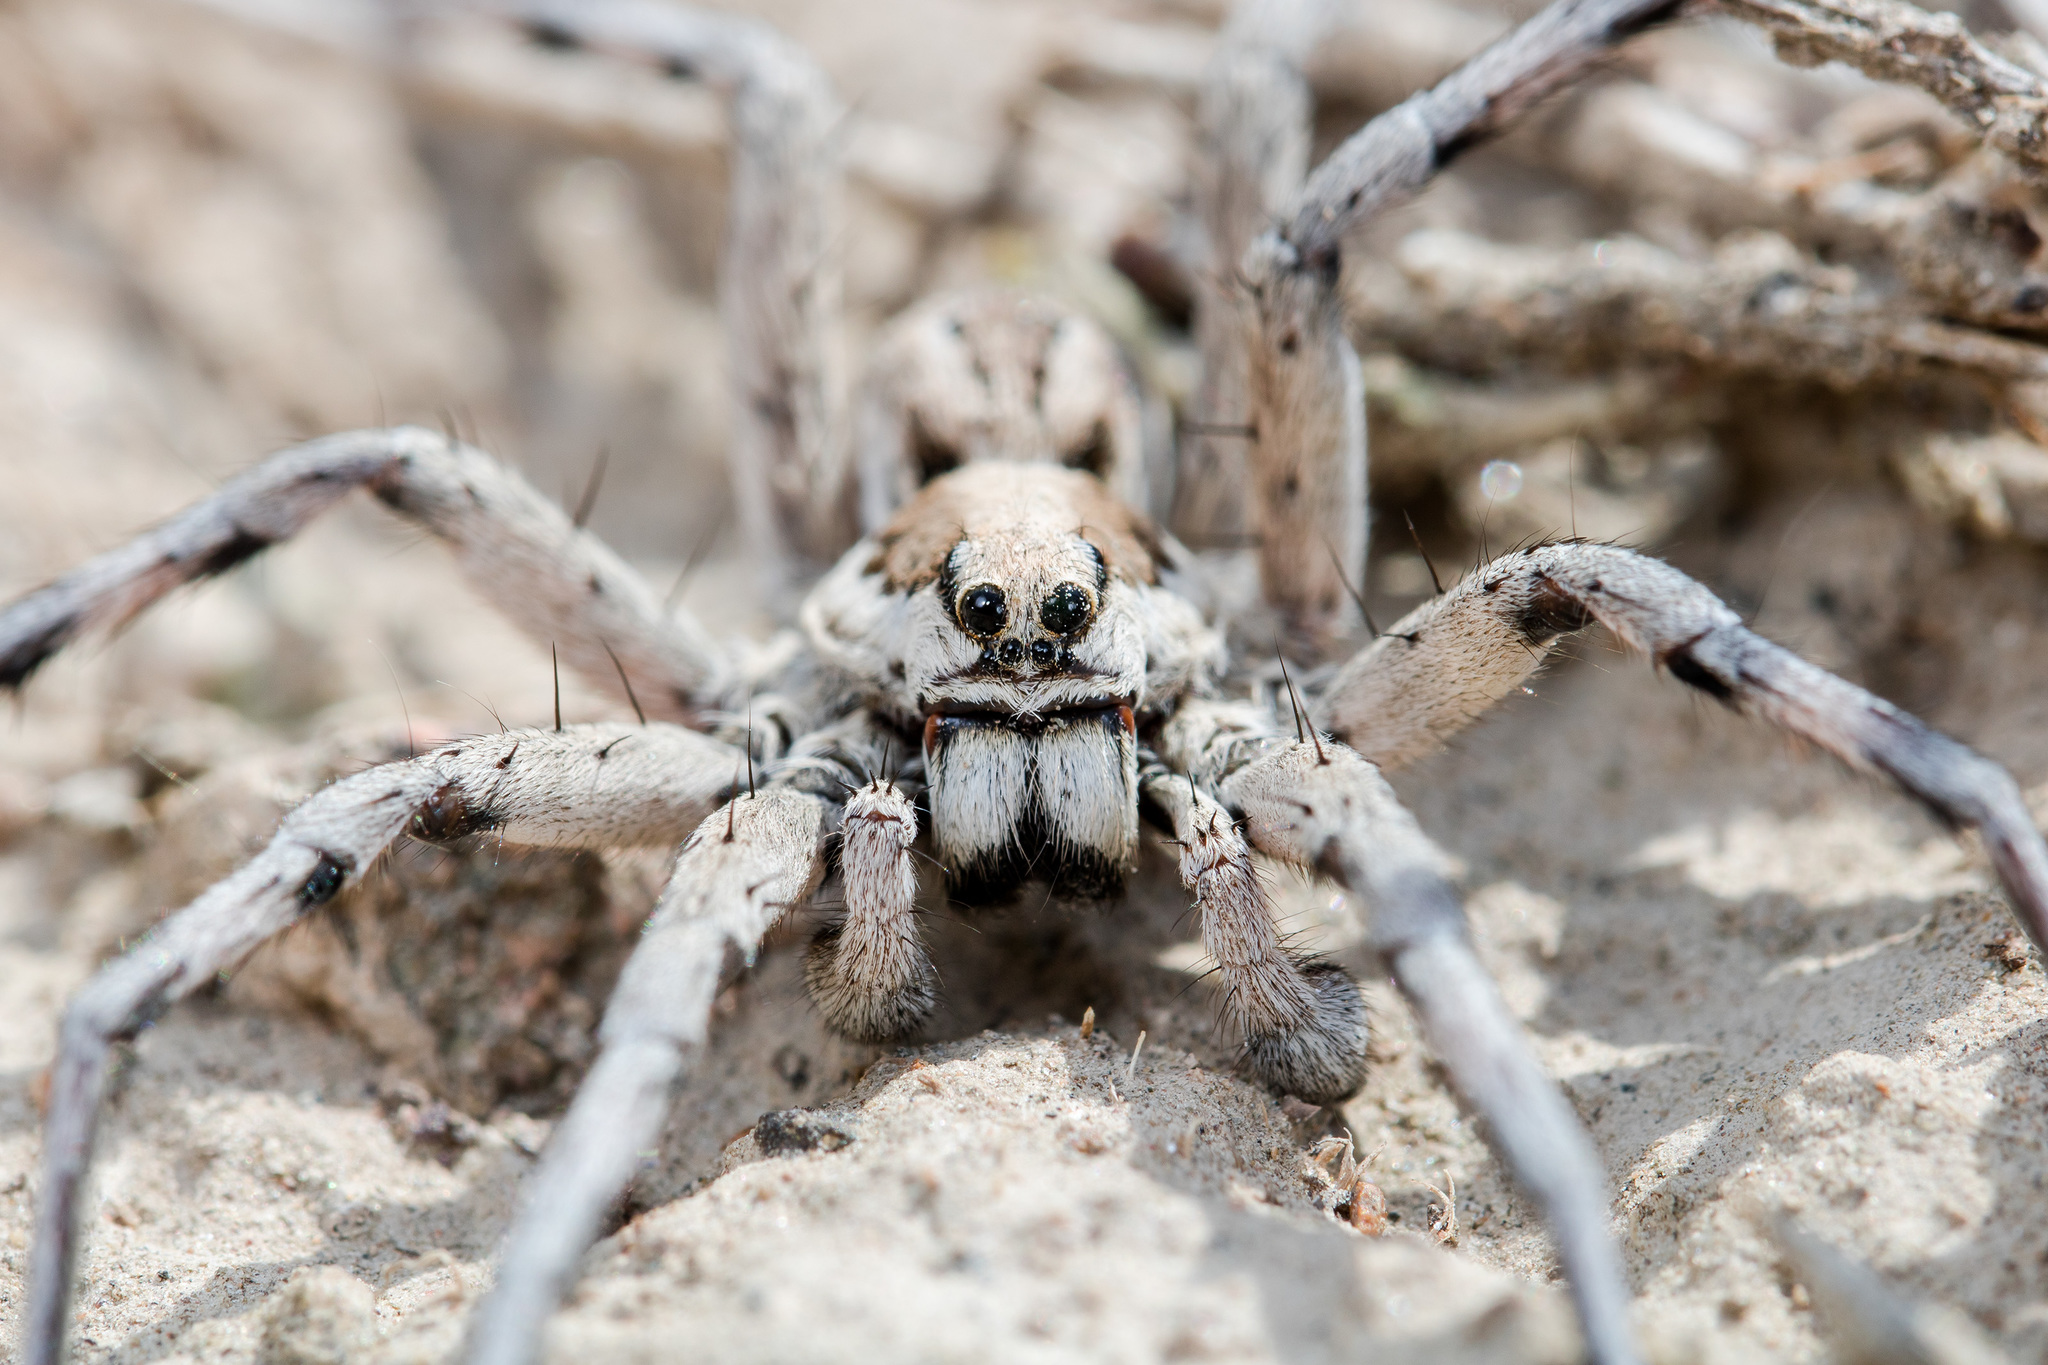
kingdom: Animalia
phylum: Arthropoda
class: Arachnida
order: Araneae
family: Lycosidae
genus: Lycosa
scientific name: Lycosa praegrandis
